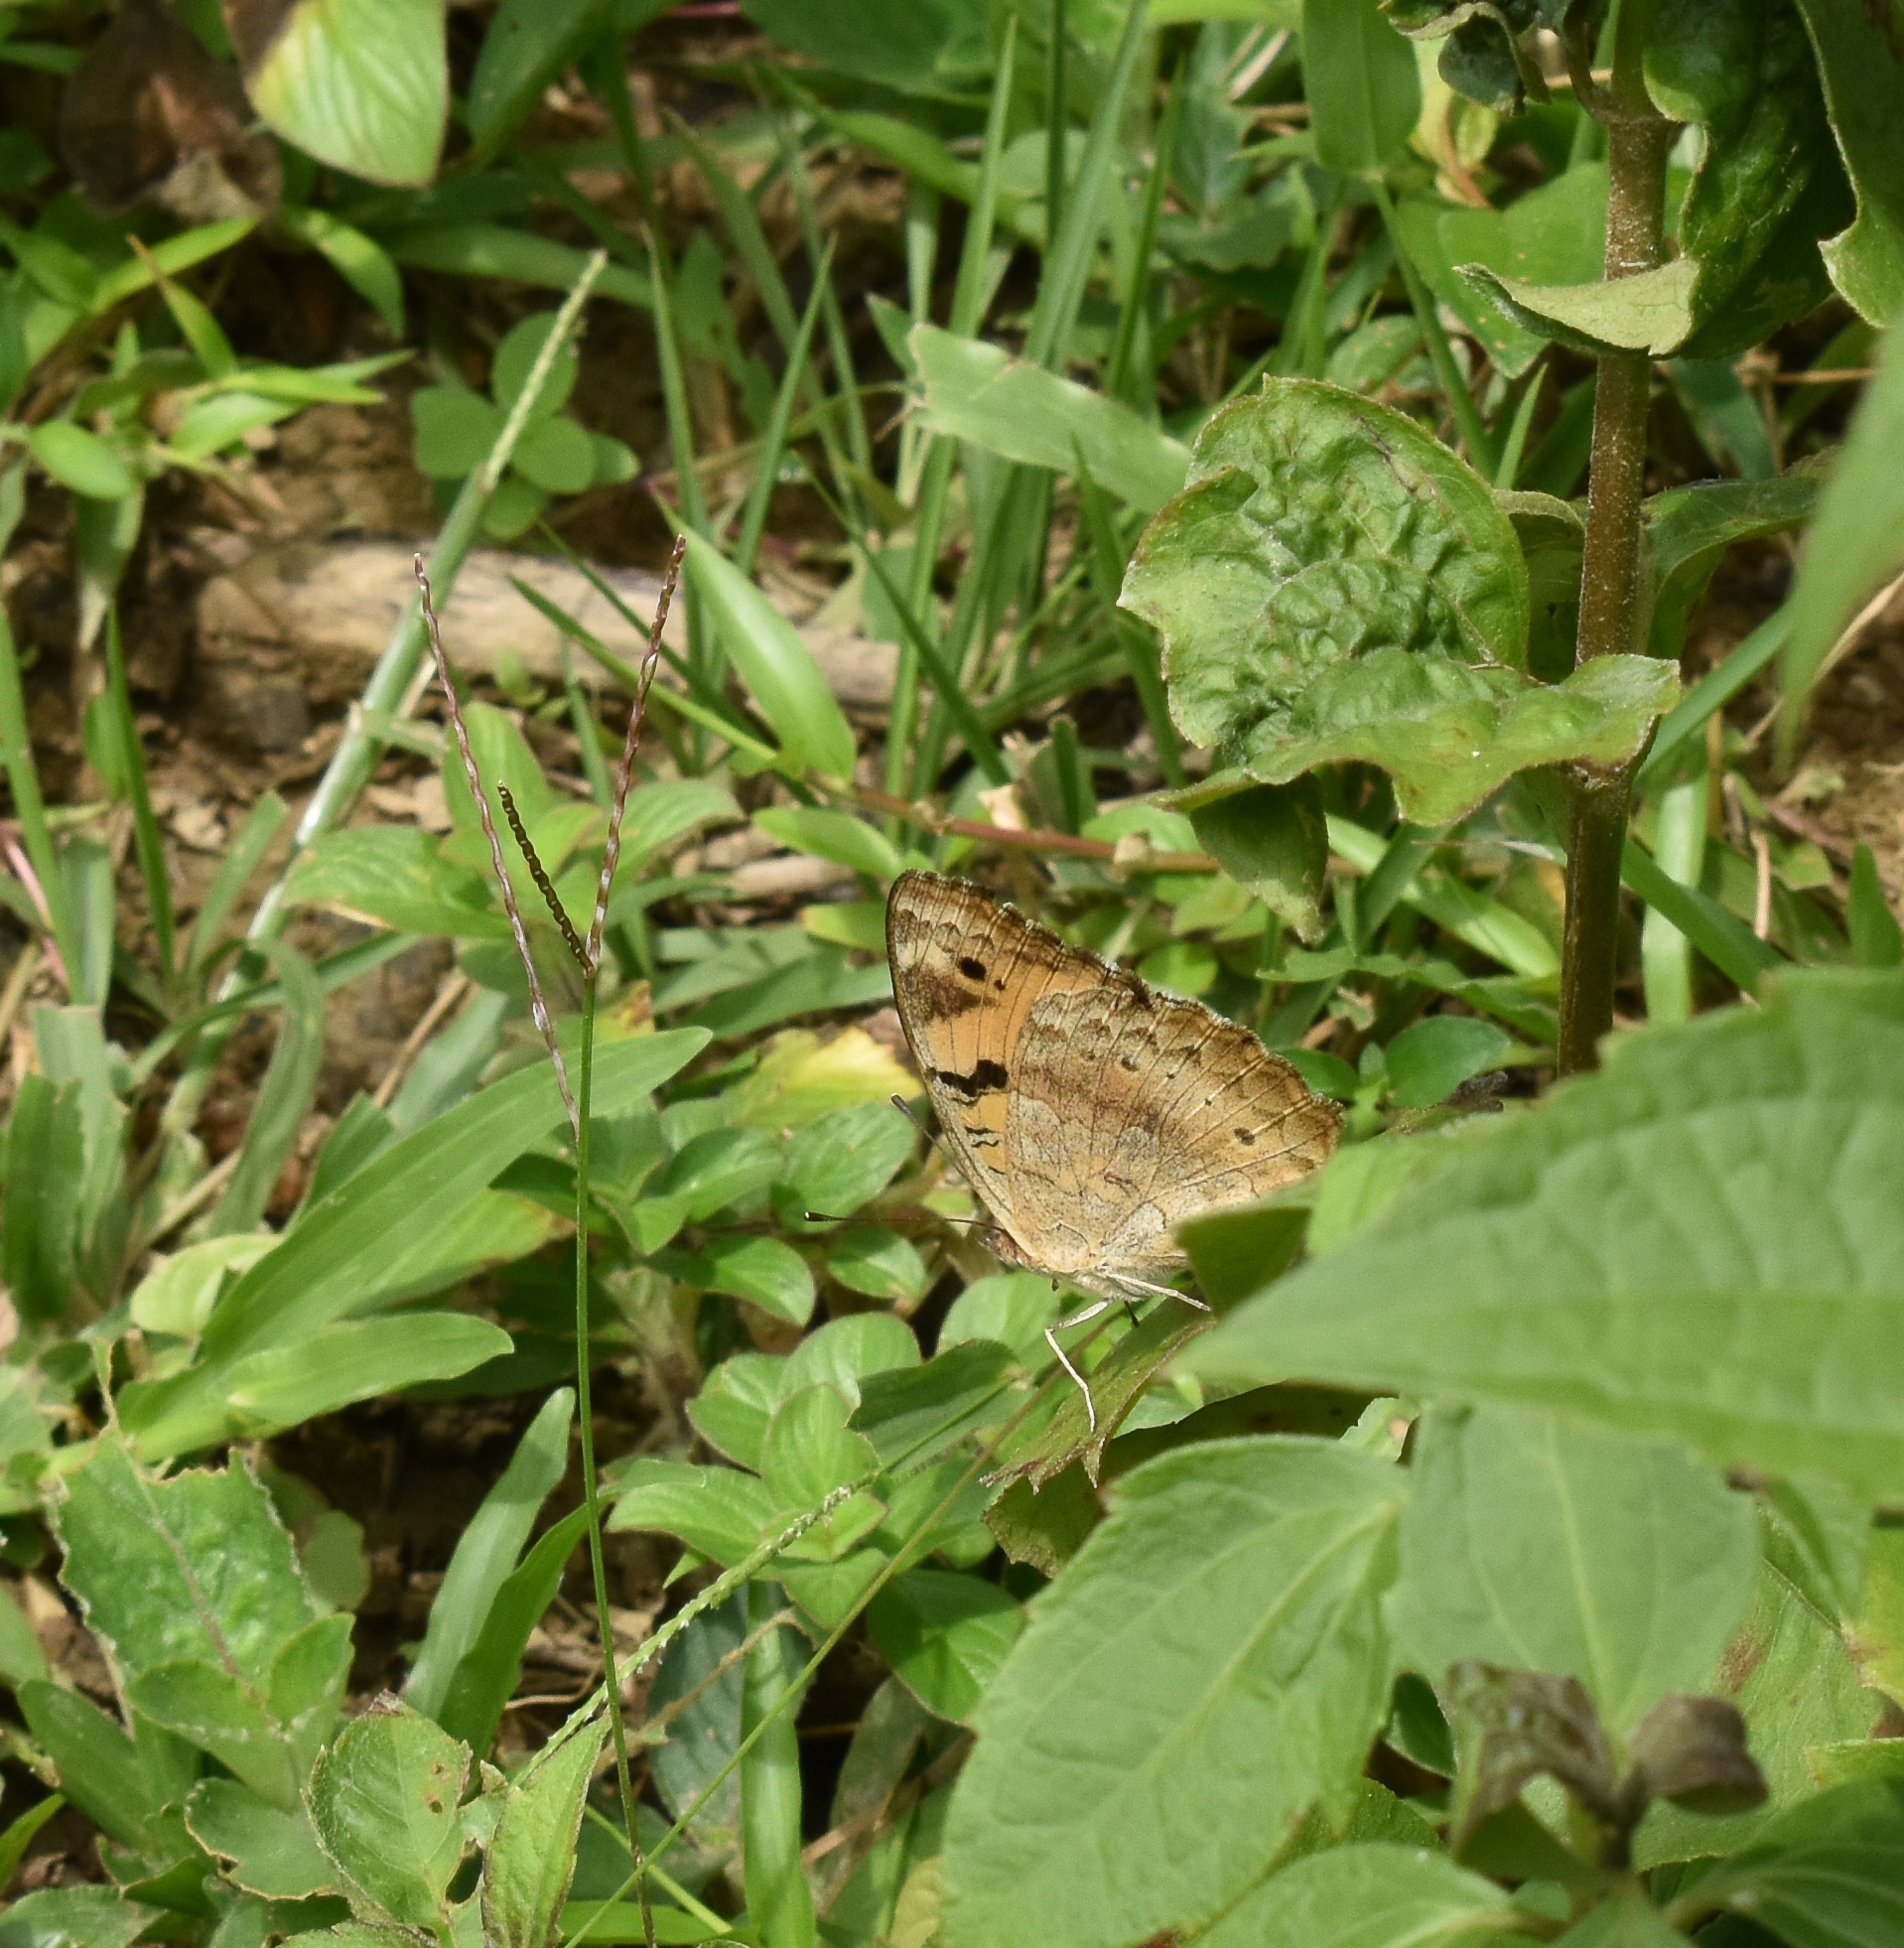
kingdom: Animalia
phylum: Arthropoda
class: Insecta
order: Lepidoptera
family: Nymphalidae
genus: Junonia
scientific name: Junonia hierta
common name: Yellow pansy
